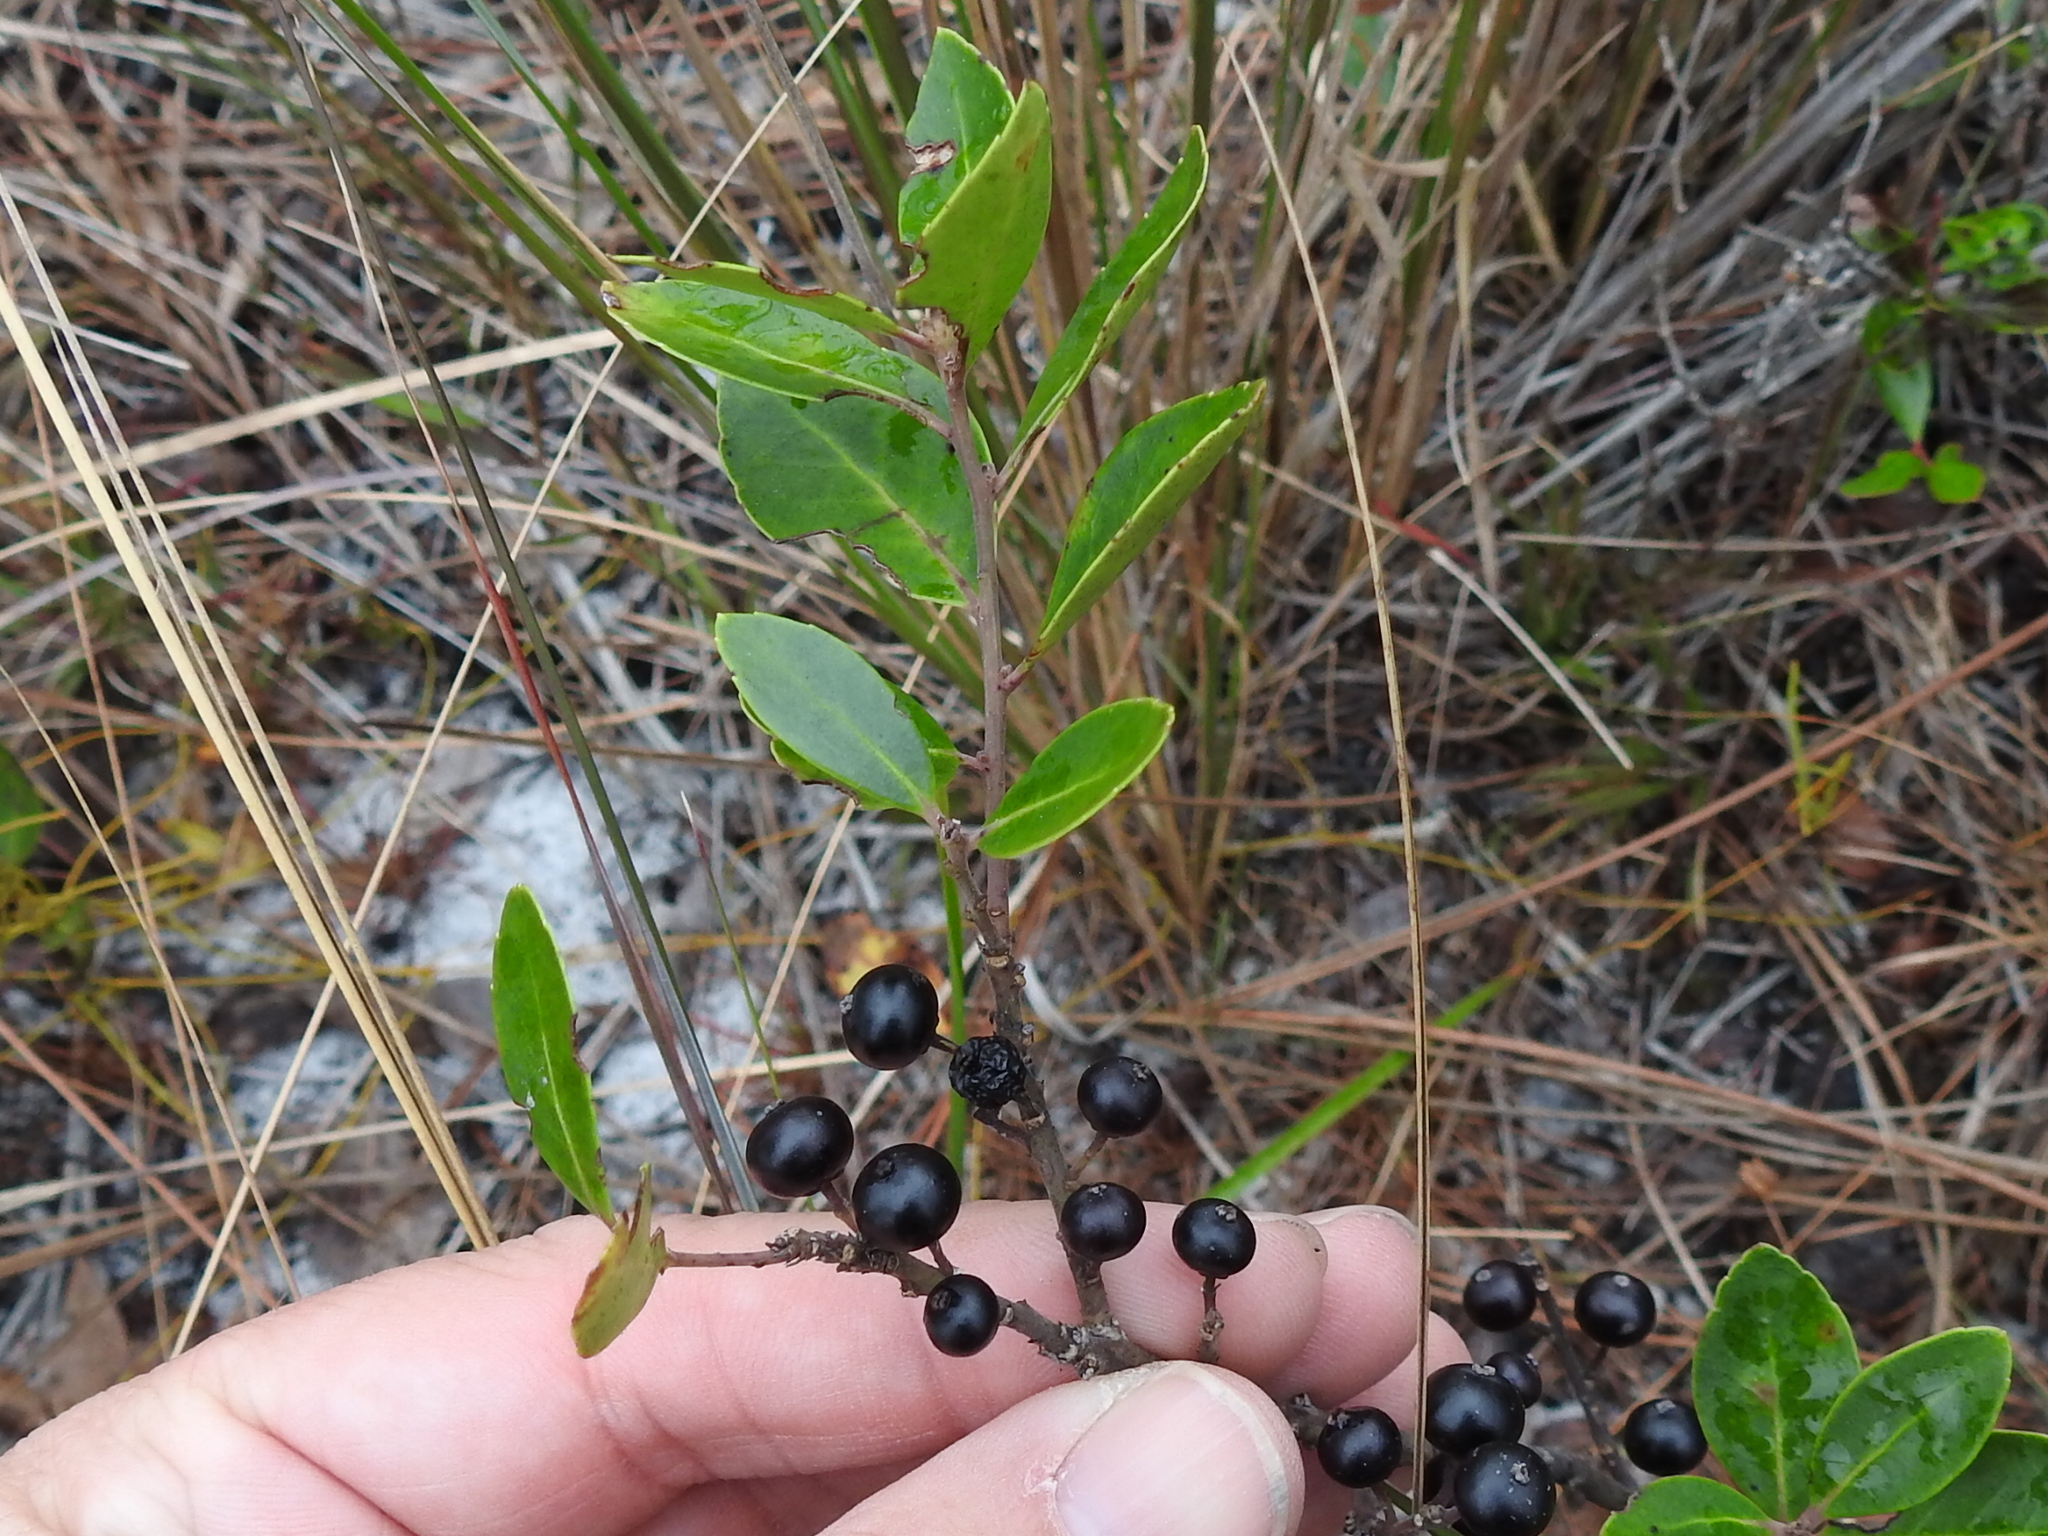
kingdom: Plantae
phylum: Tracheophyta
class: Magnoliopsida
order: Aquifoliales
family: Aquifoliaceae
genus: Ilex
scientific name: Ilex glabra
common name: Bitter gallberry
